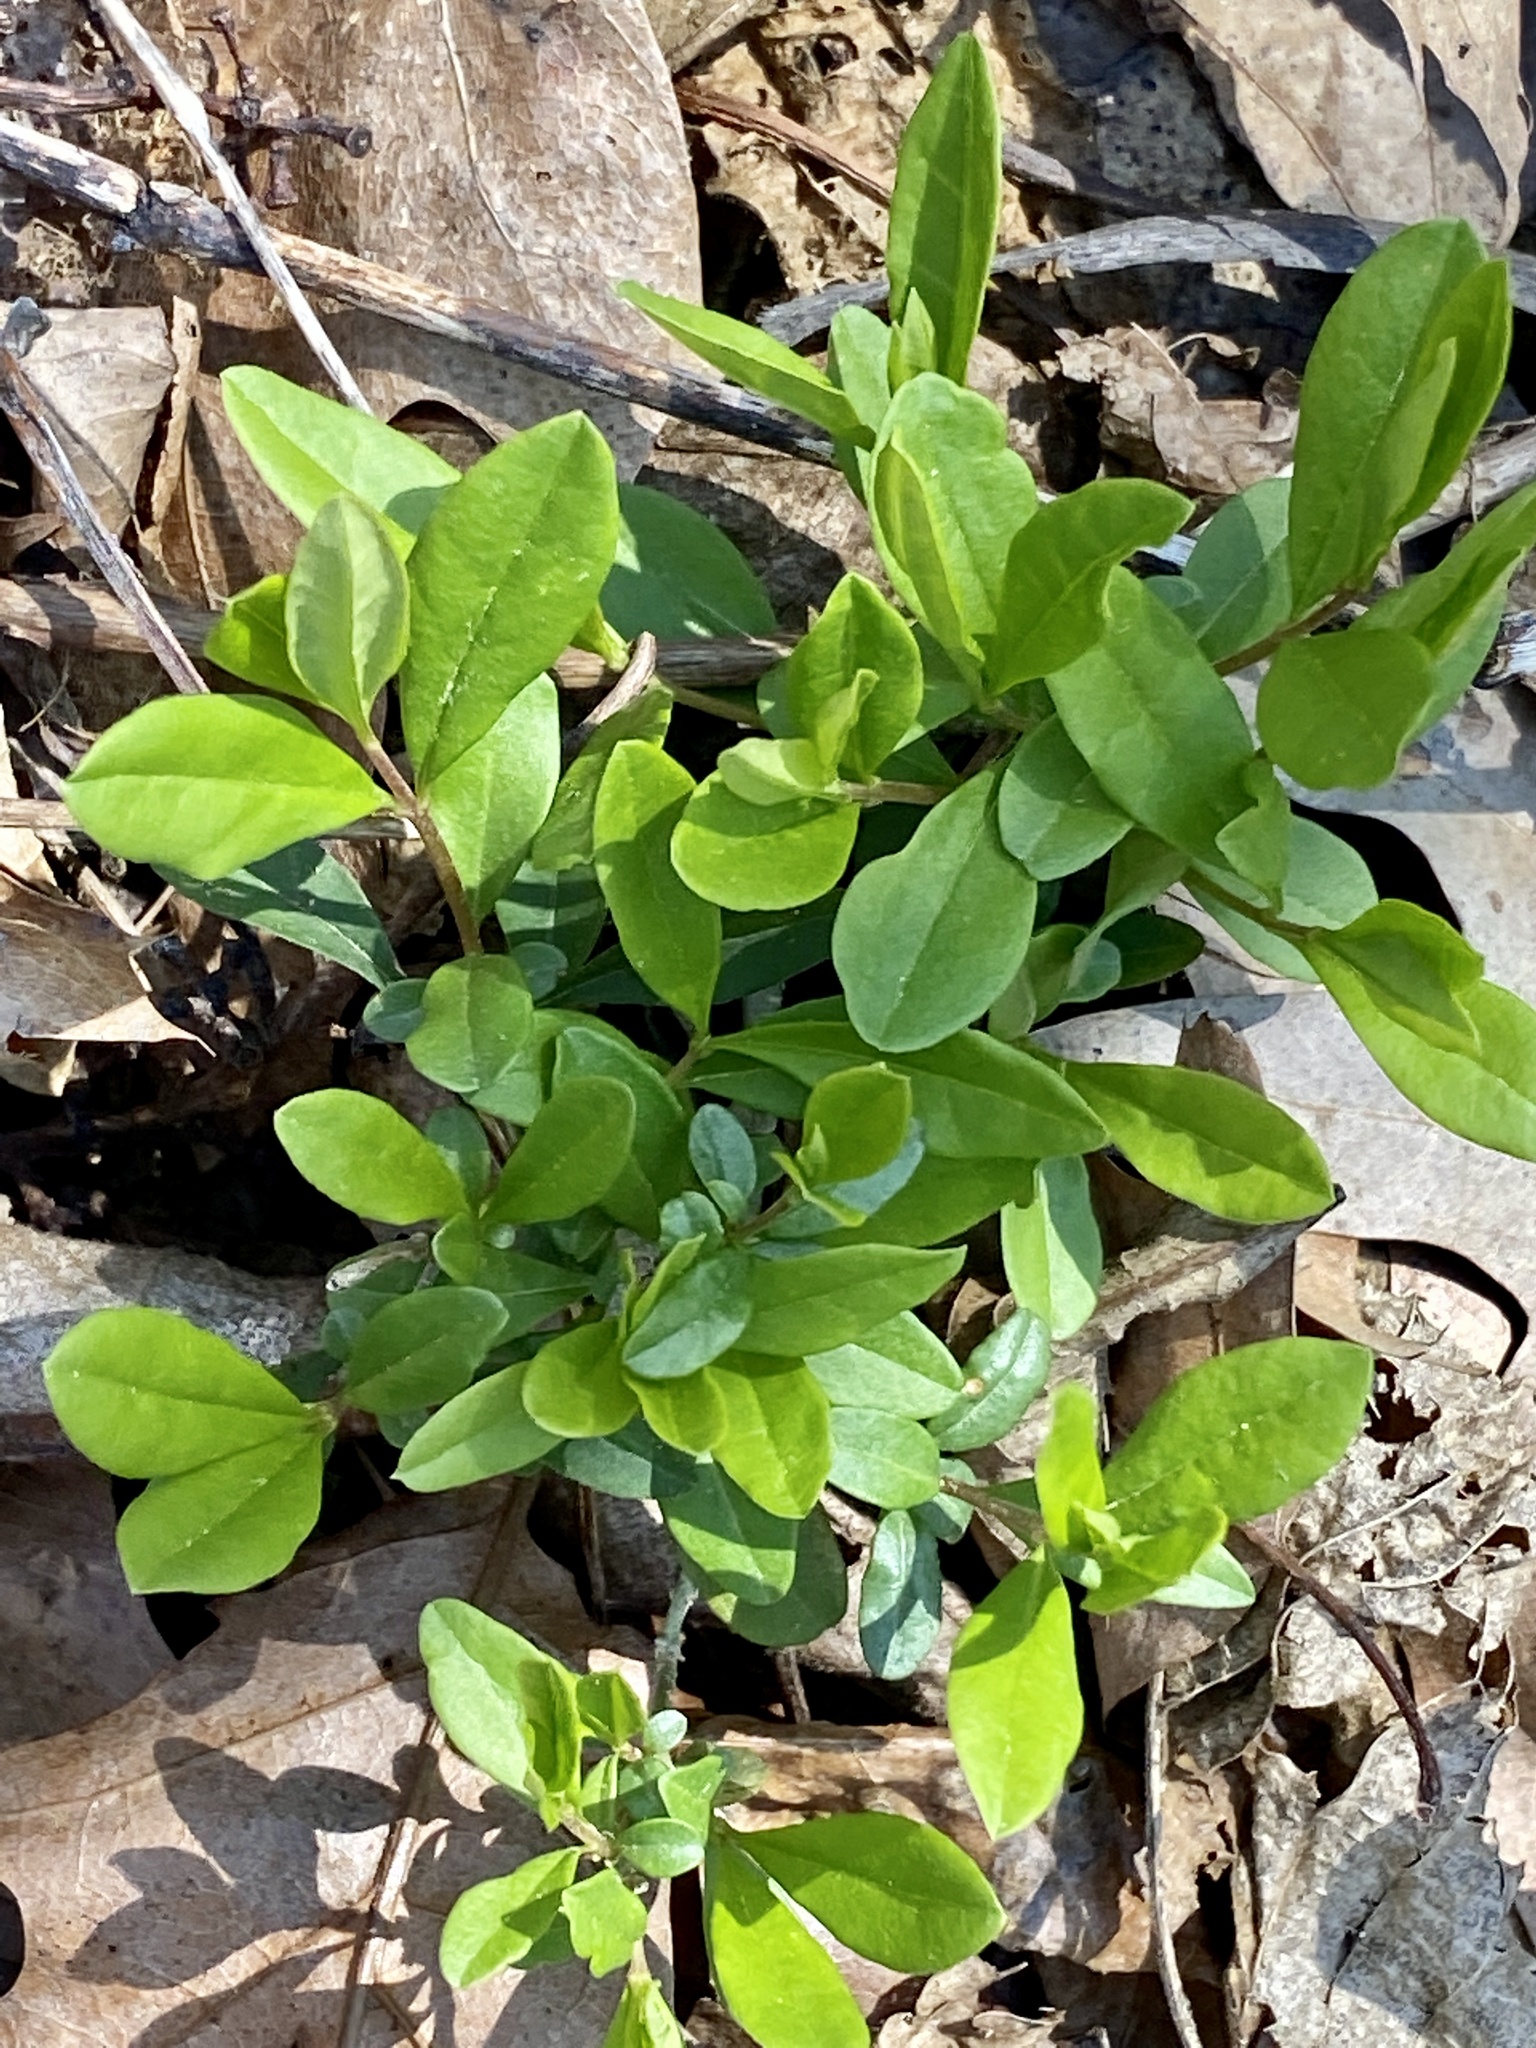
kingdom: Plantae
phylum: Tracheophyta
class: Magnoliopsida
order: Lamiales
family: Oleaceae
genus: Ligustrum
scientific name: Ligustrum obtusifolium
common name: Border privet
